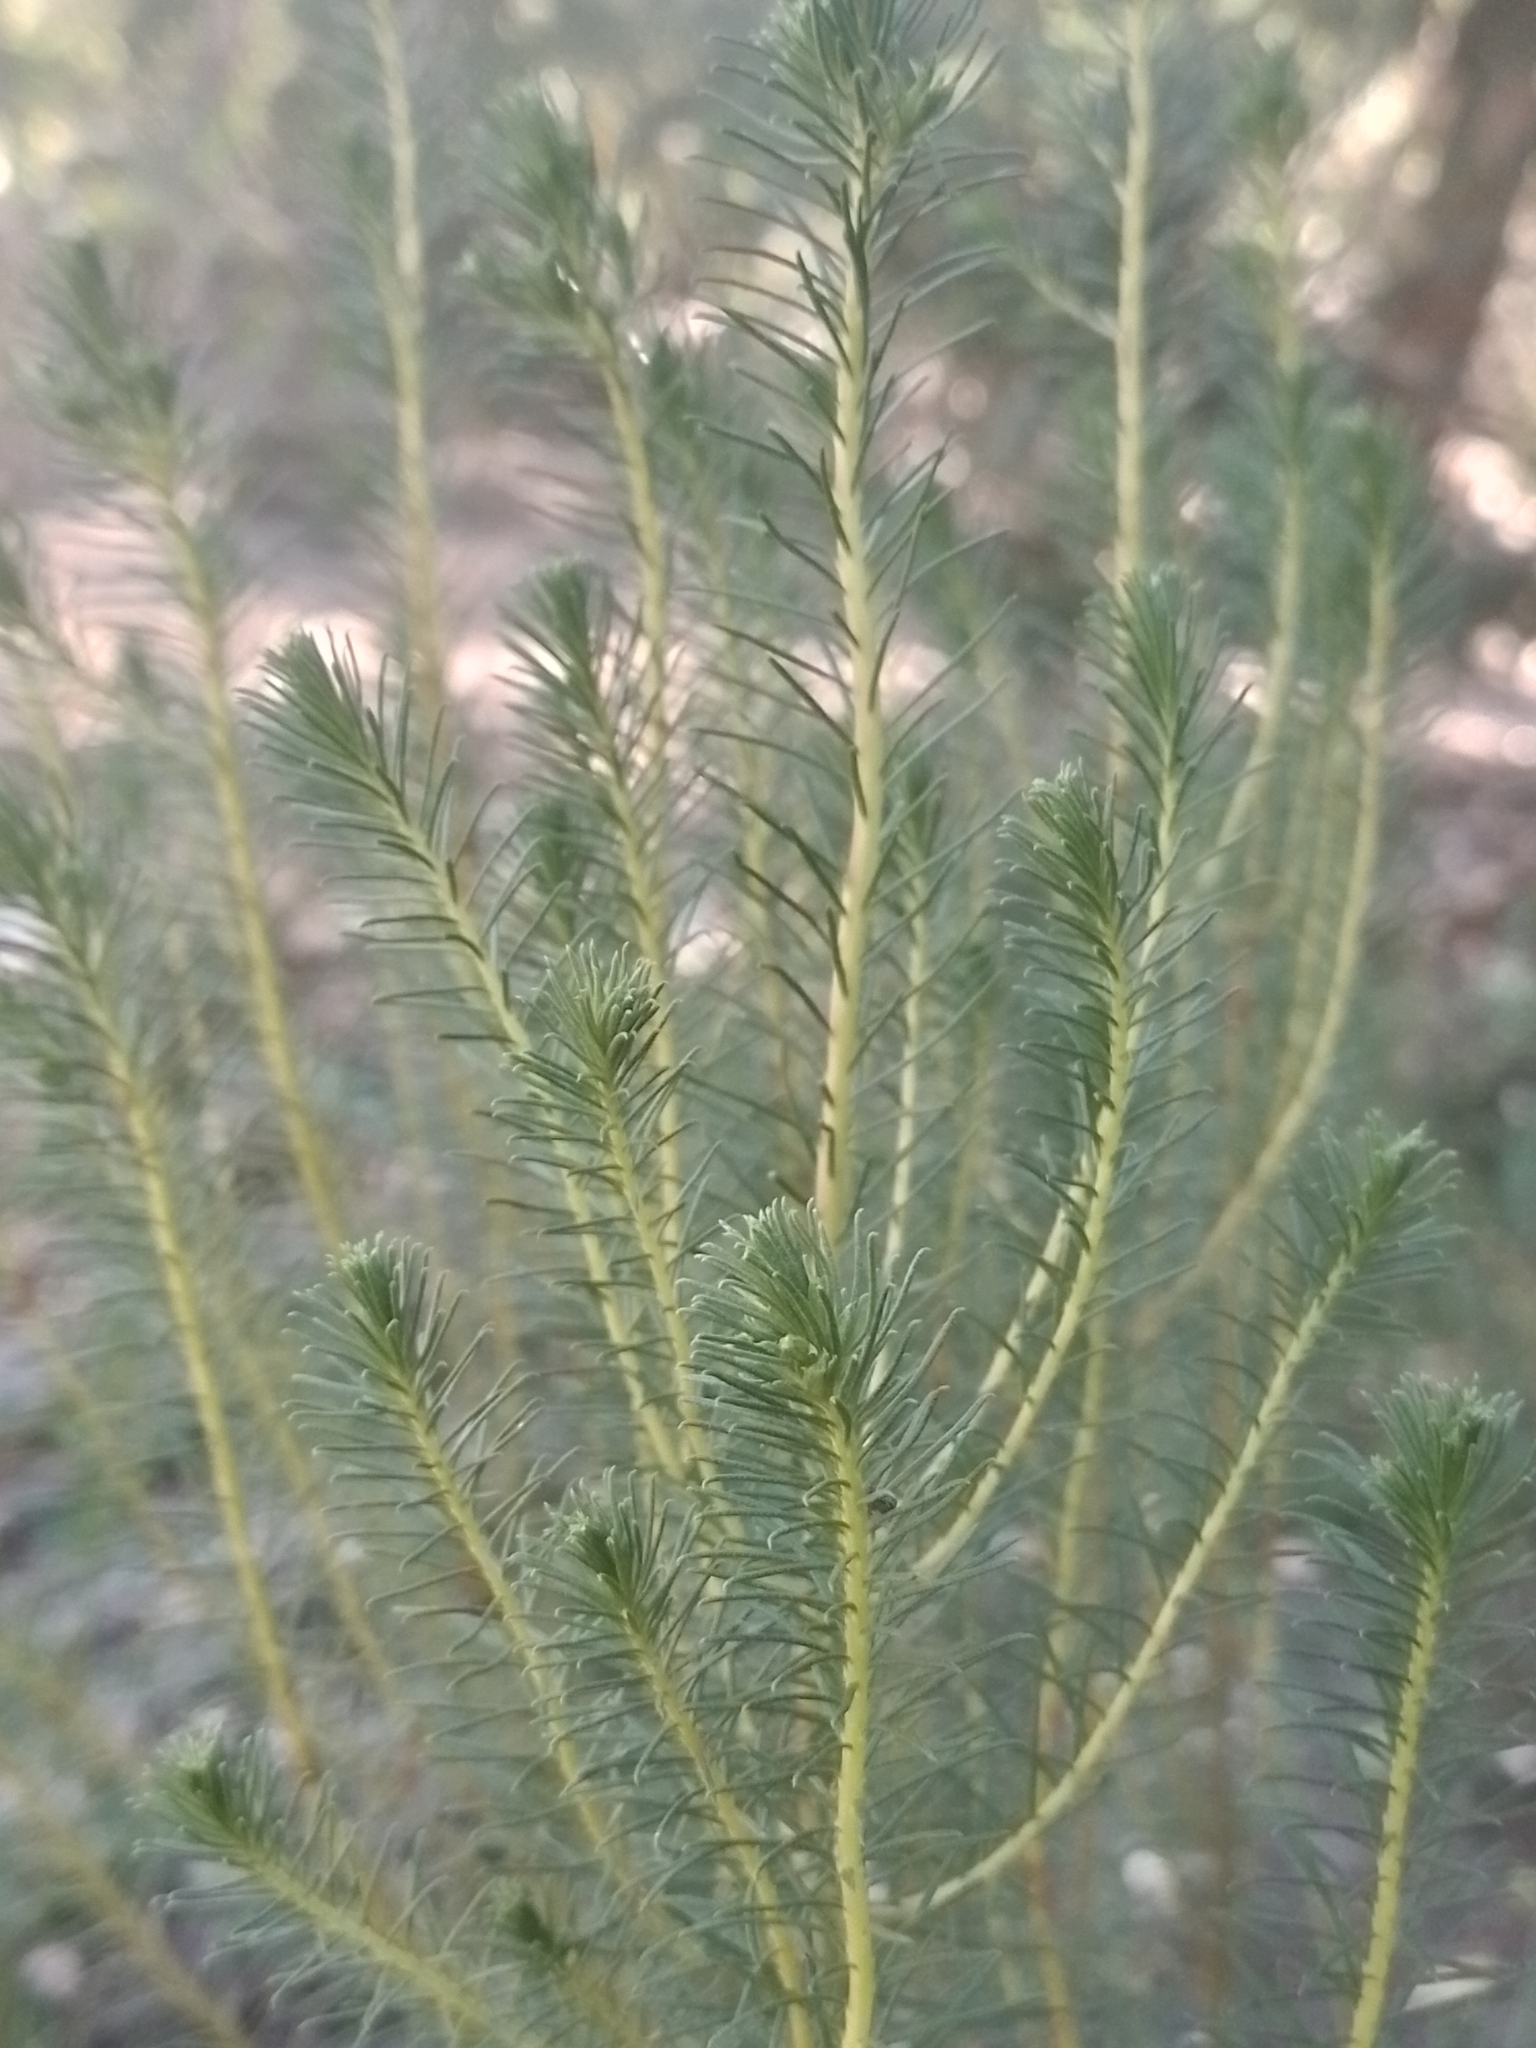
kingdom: Plantae
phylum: Tracheophyta
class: Magnoliopsida
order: Asterales
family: Asteraceae
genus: Baccharis
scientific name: Baccharis aliena
